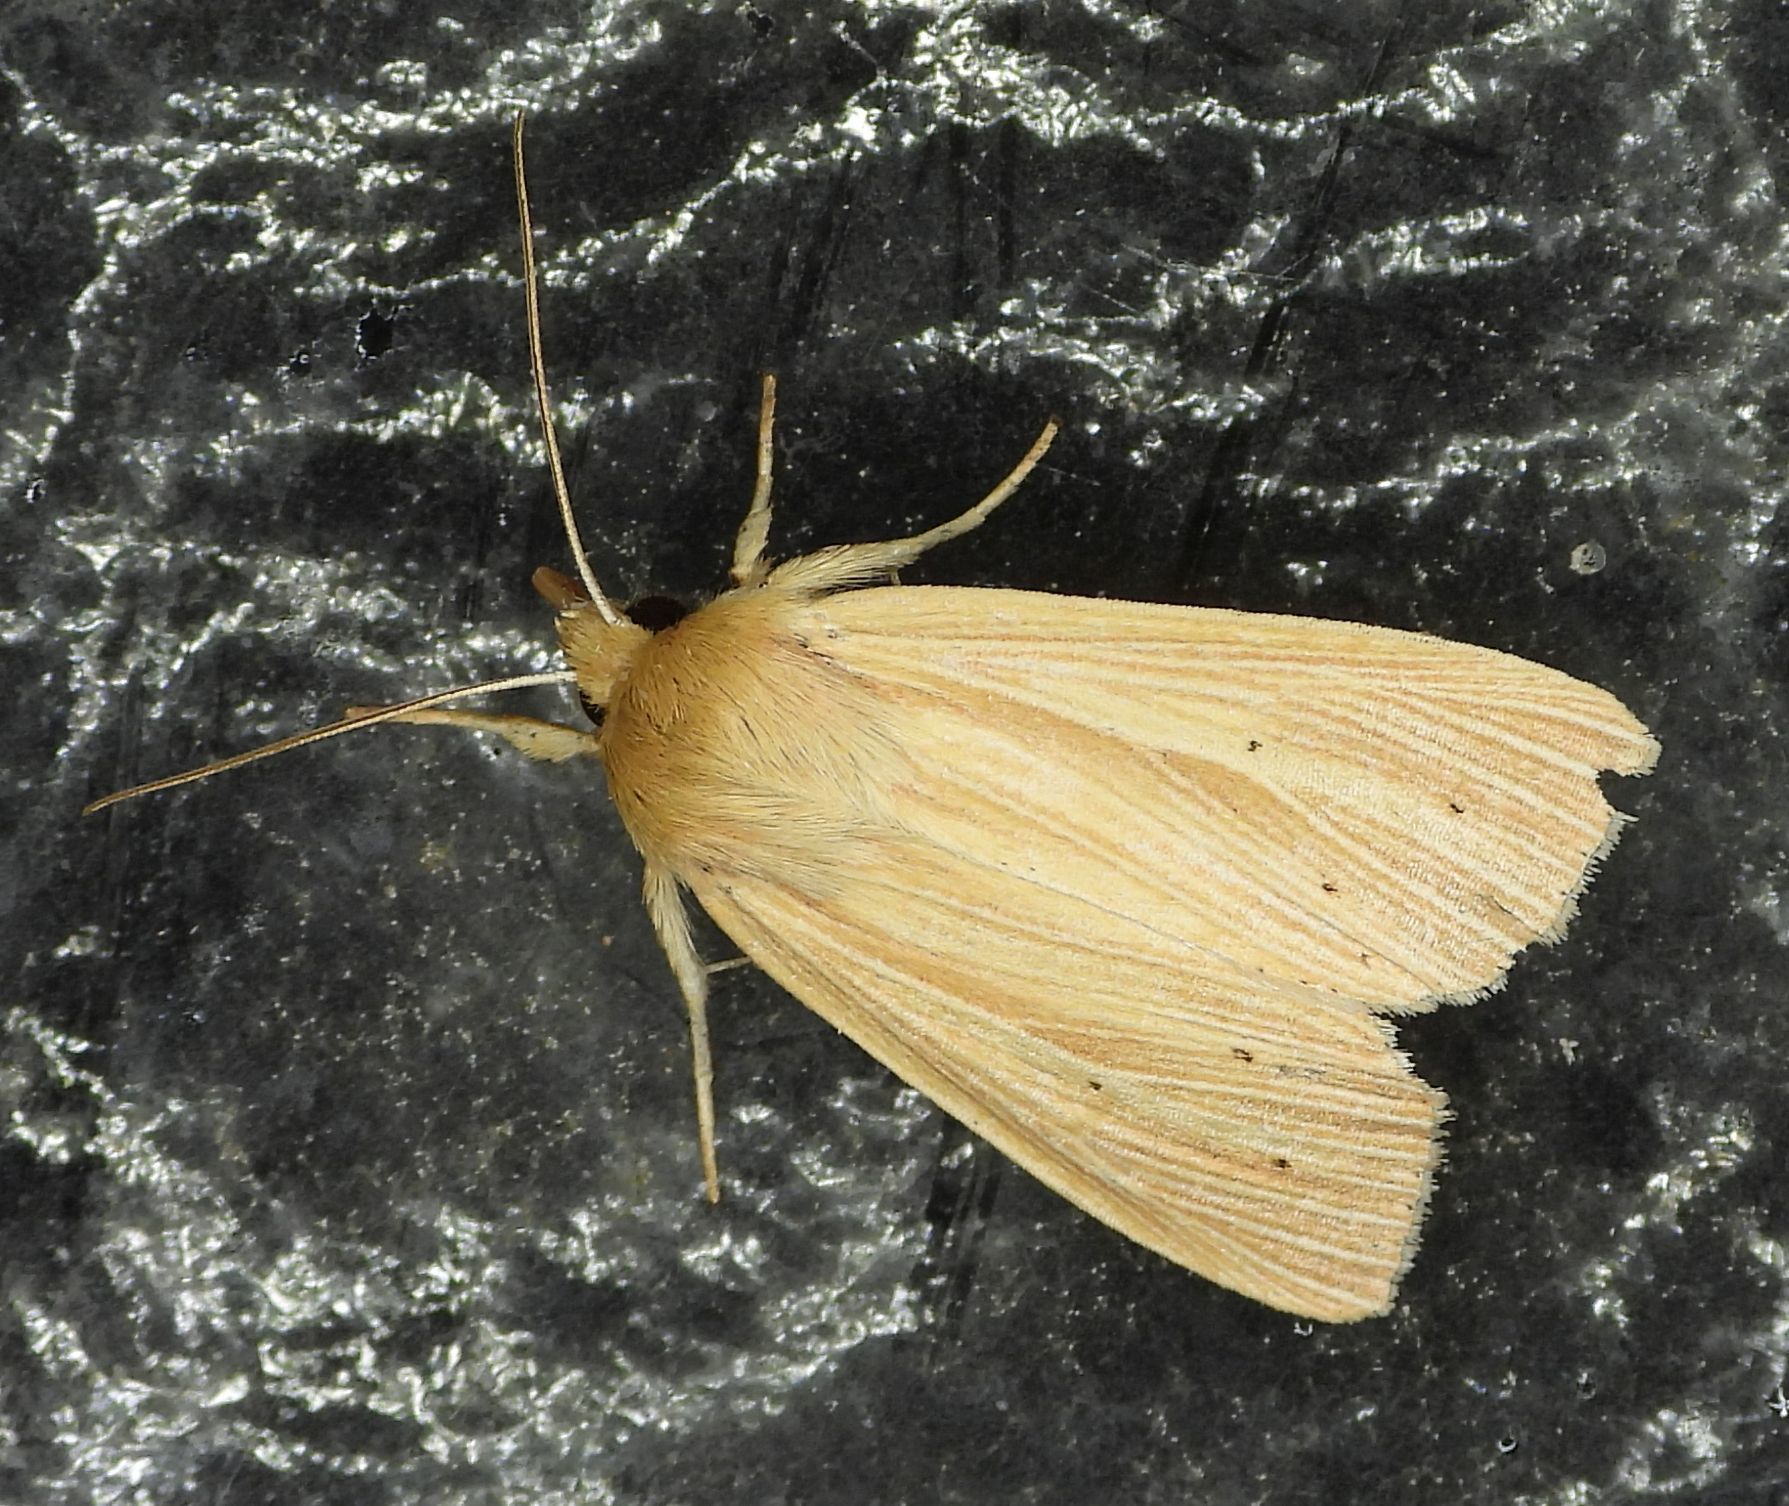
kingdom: Animalia
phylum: Arthropoda
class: Insecta
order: Lepidoptera
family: Noctuidae
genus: Mythimna
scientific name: Mythimna oxygala
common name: Lesser wainscot
